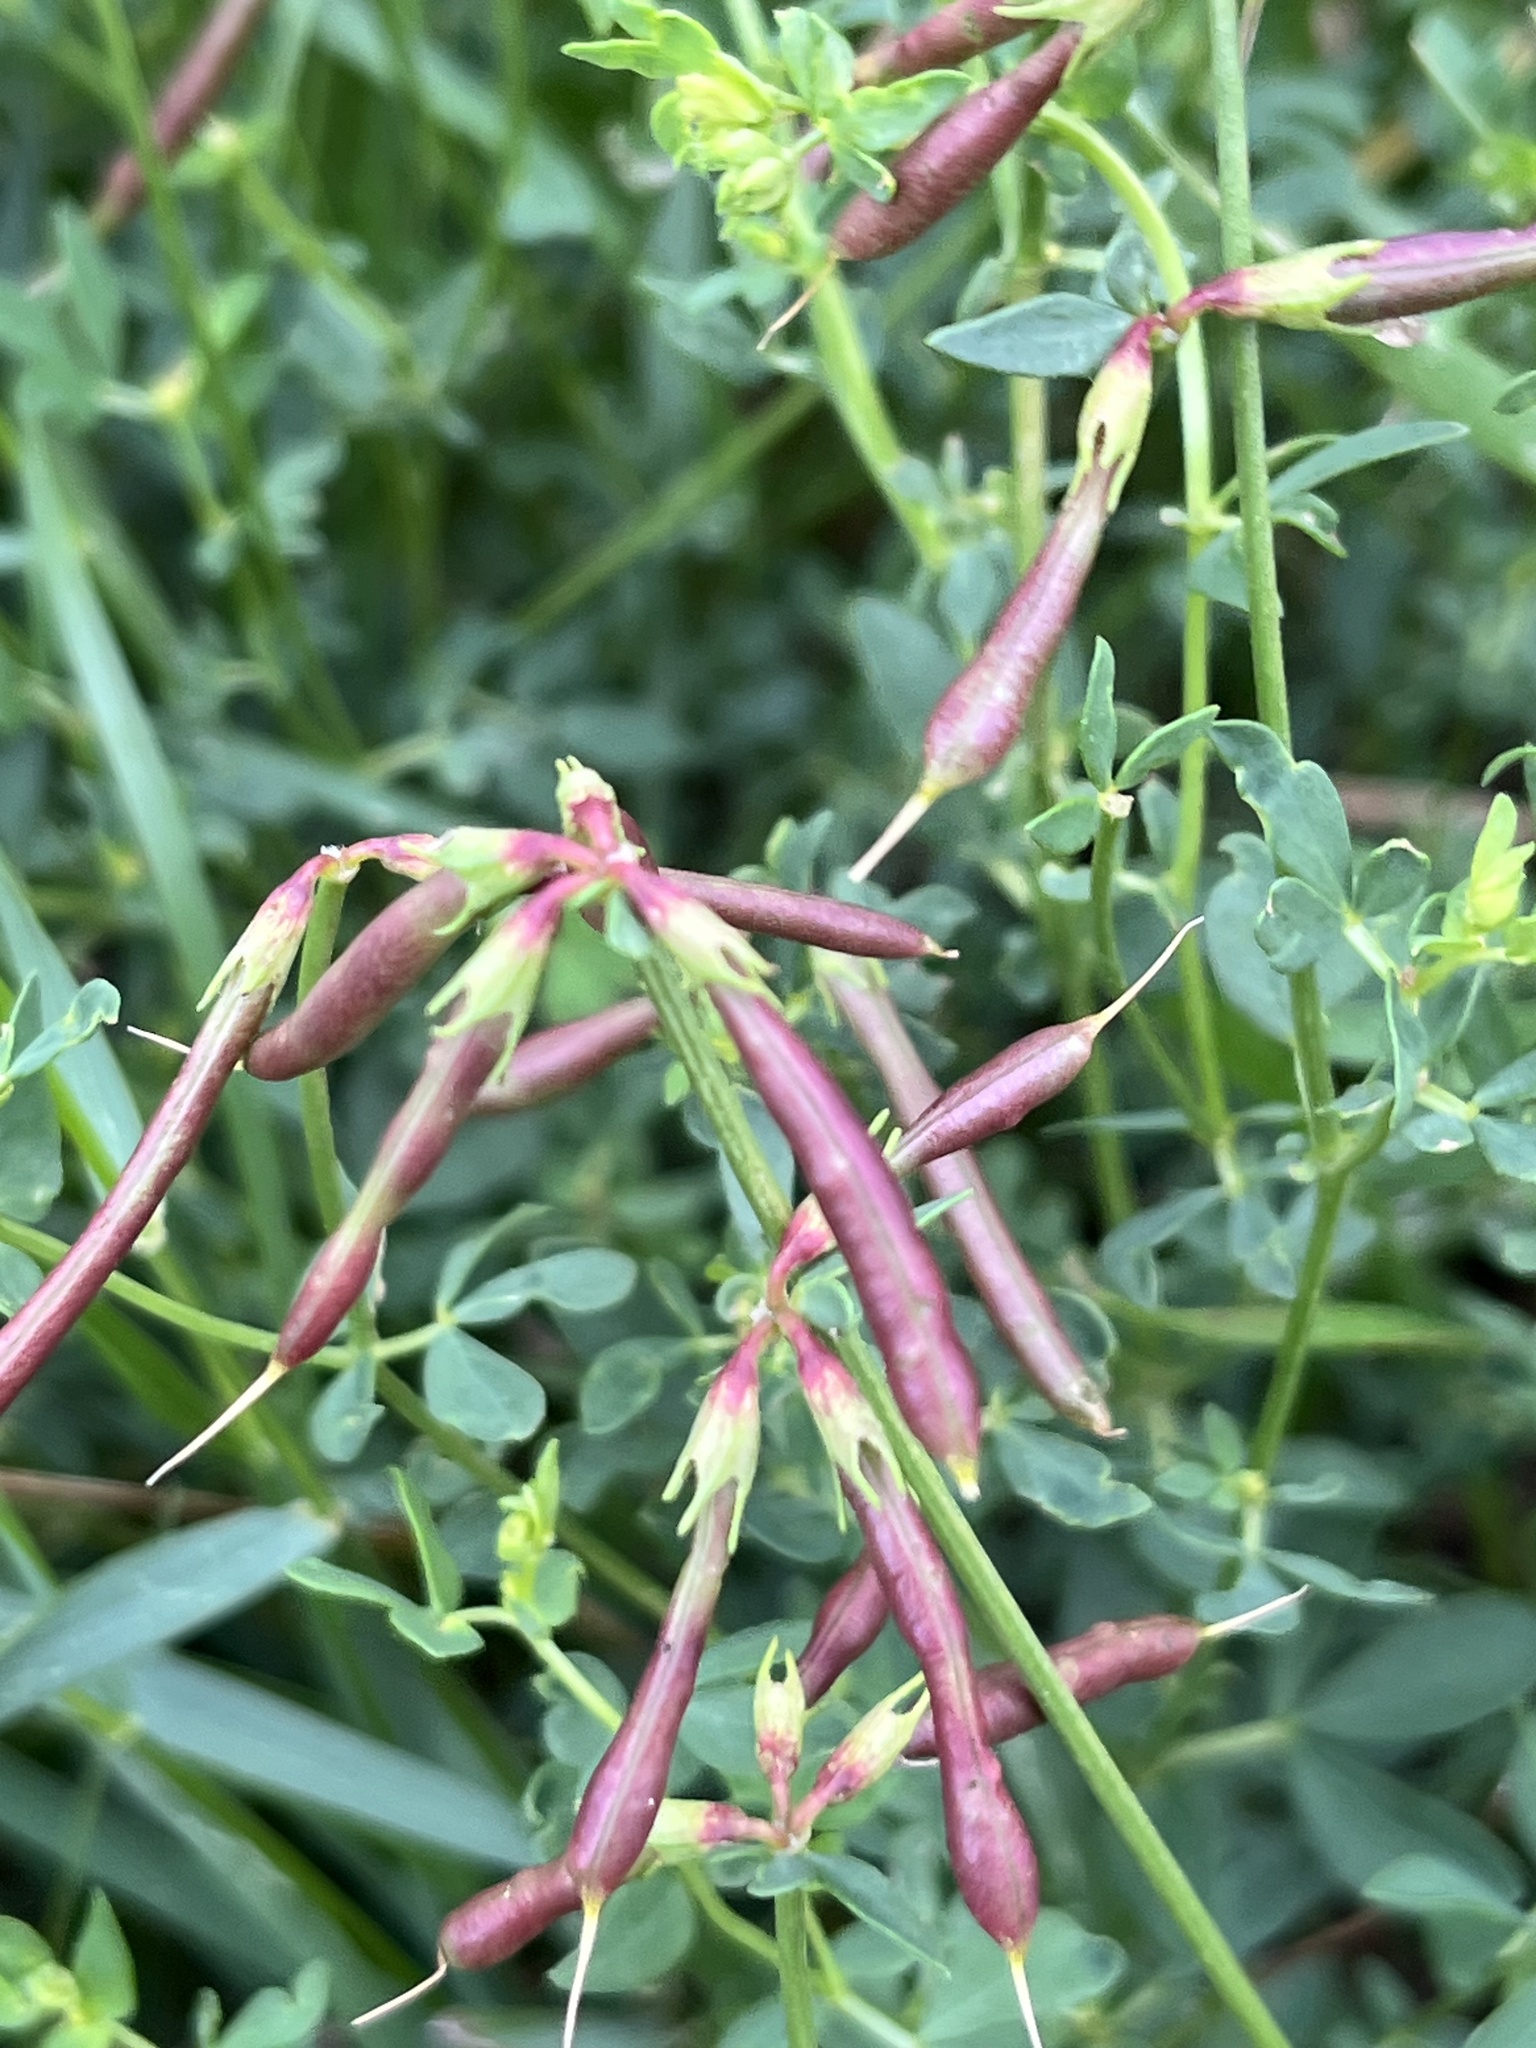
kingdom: Plantae
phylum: Tracheophyta
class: Magnoliopsida
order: Fabales
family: Fabaceae
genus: Lotus
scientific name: Lotus corniculatus
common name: Common bird's-foot-trefoil
